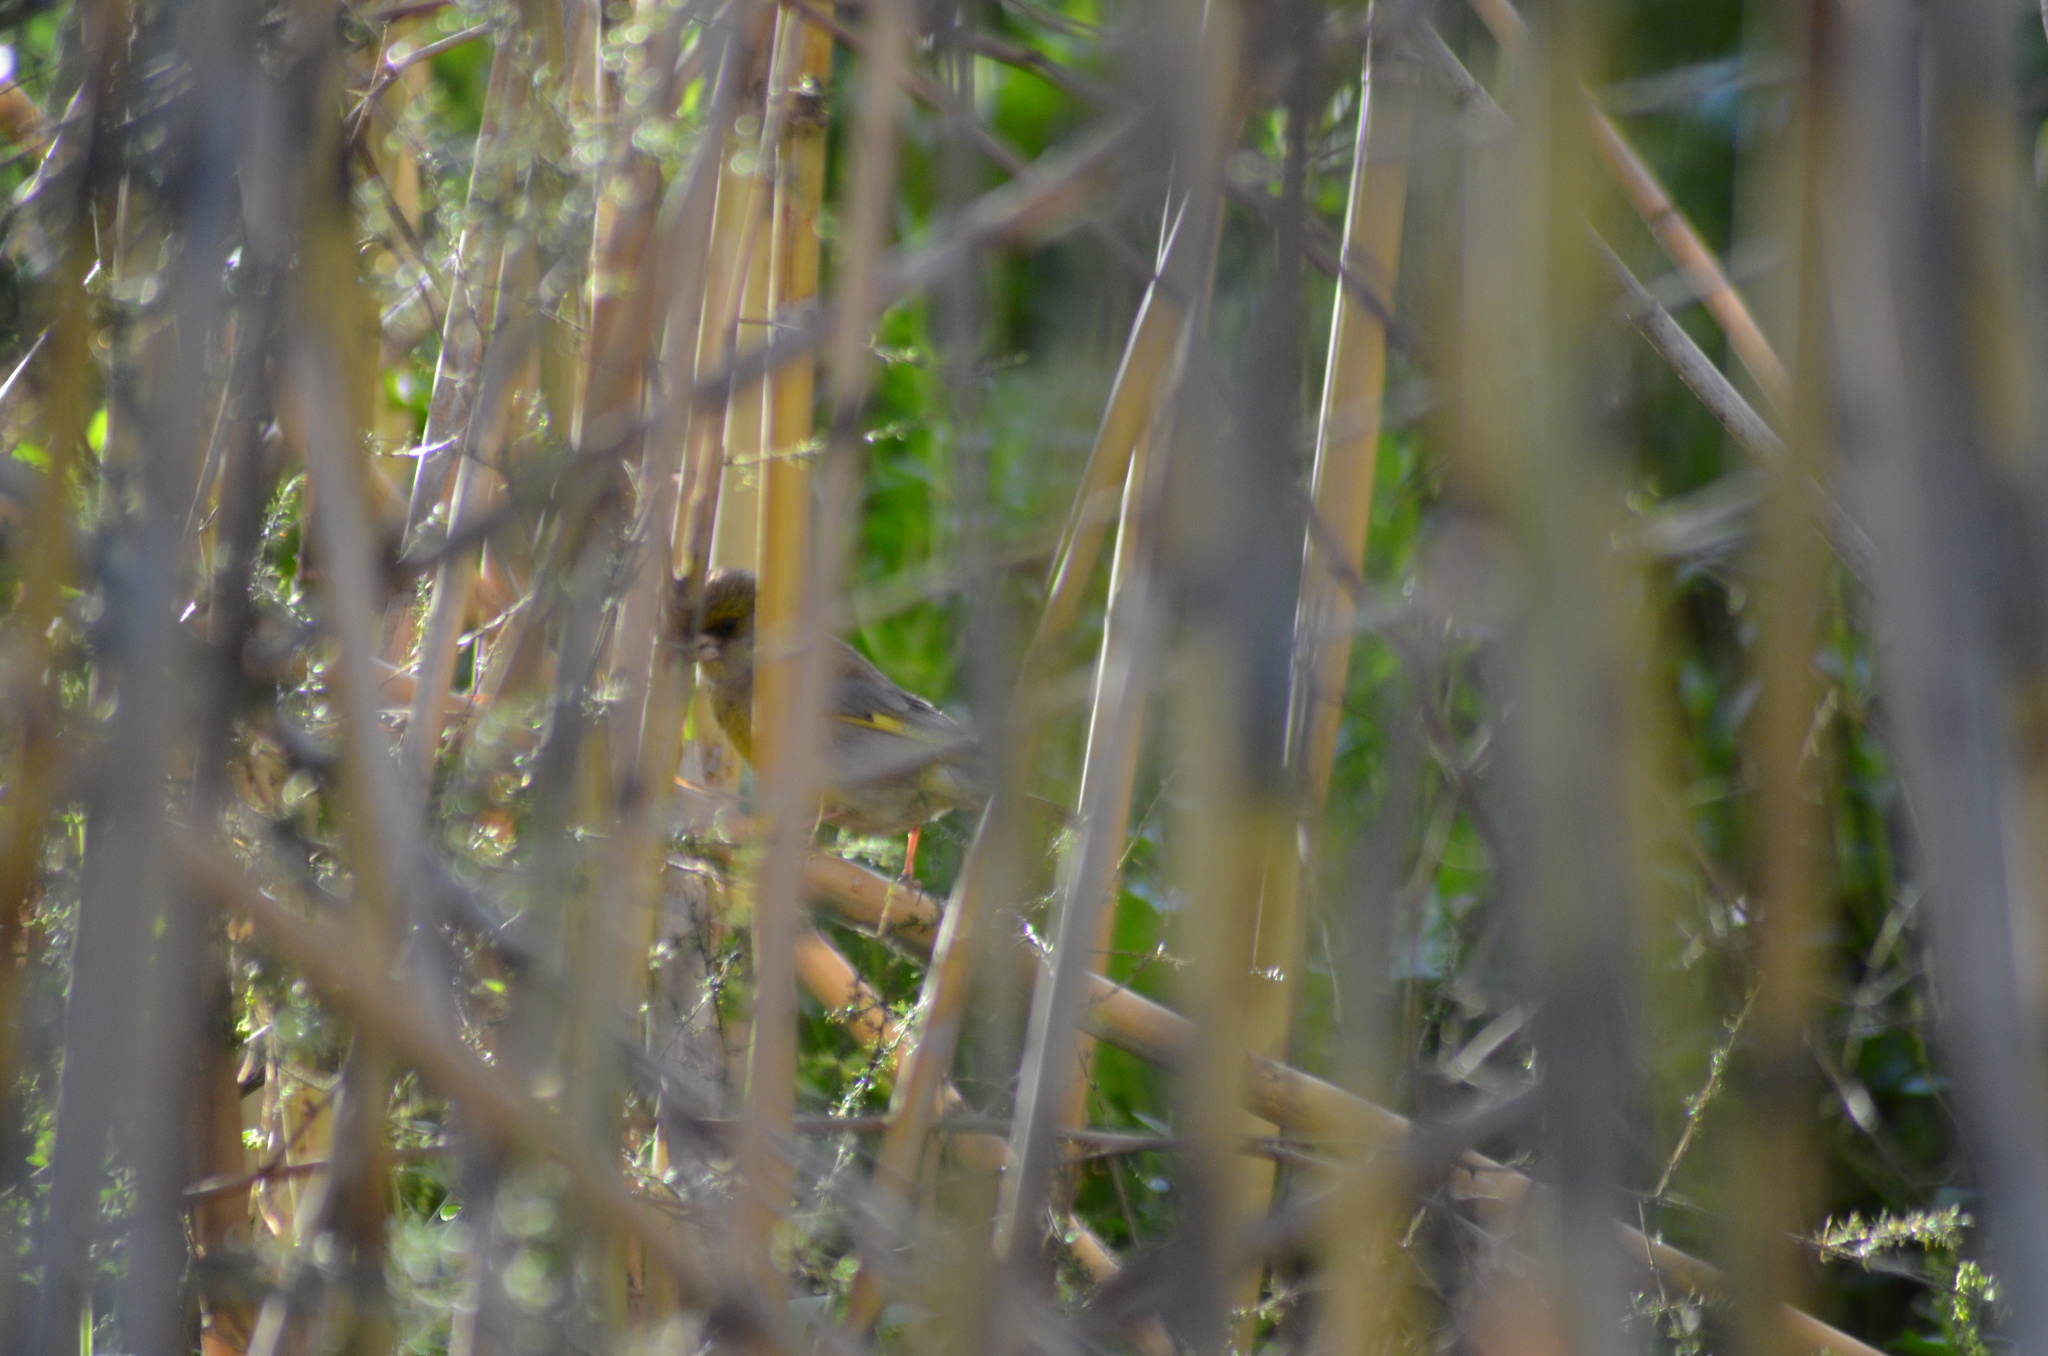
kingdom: Plantae
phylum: Tracheophyta
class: Liliopsida
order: Poales
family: Poaceae
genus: Chloris
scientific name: Chloris chloris
